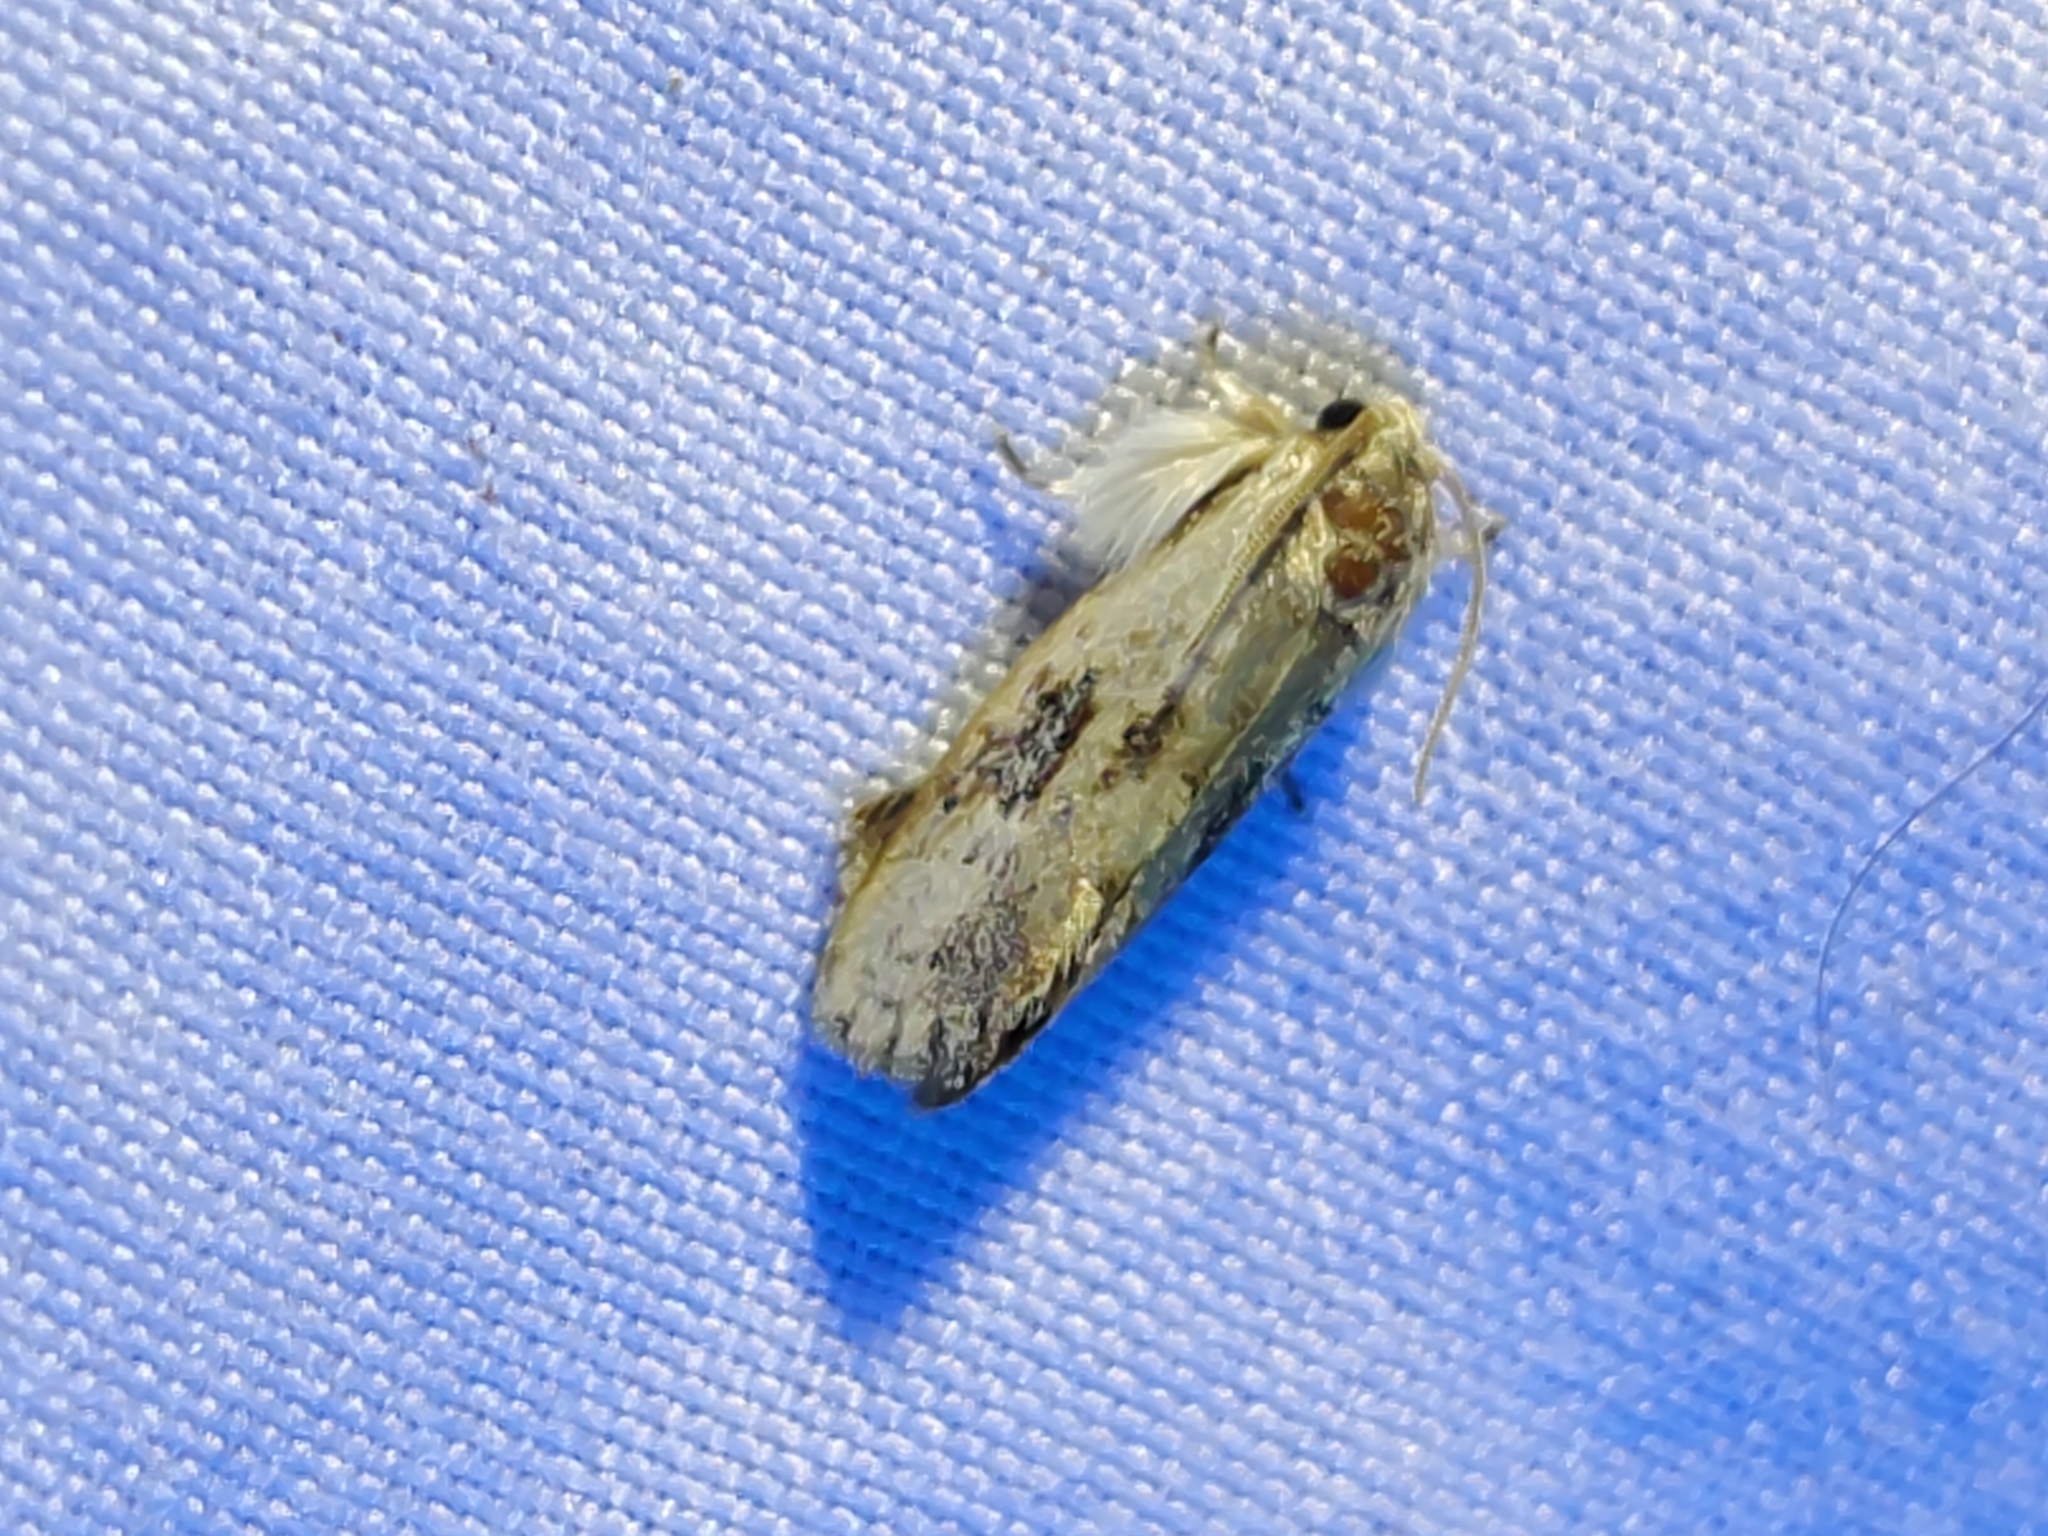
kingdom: Animalia
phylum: Arthropoda
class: Insecta
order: Lepidoptera
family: Tineidae
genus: Acrolophus
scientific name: Acrolophus mycetophagus
